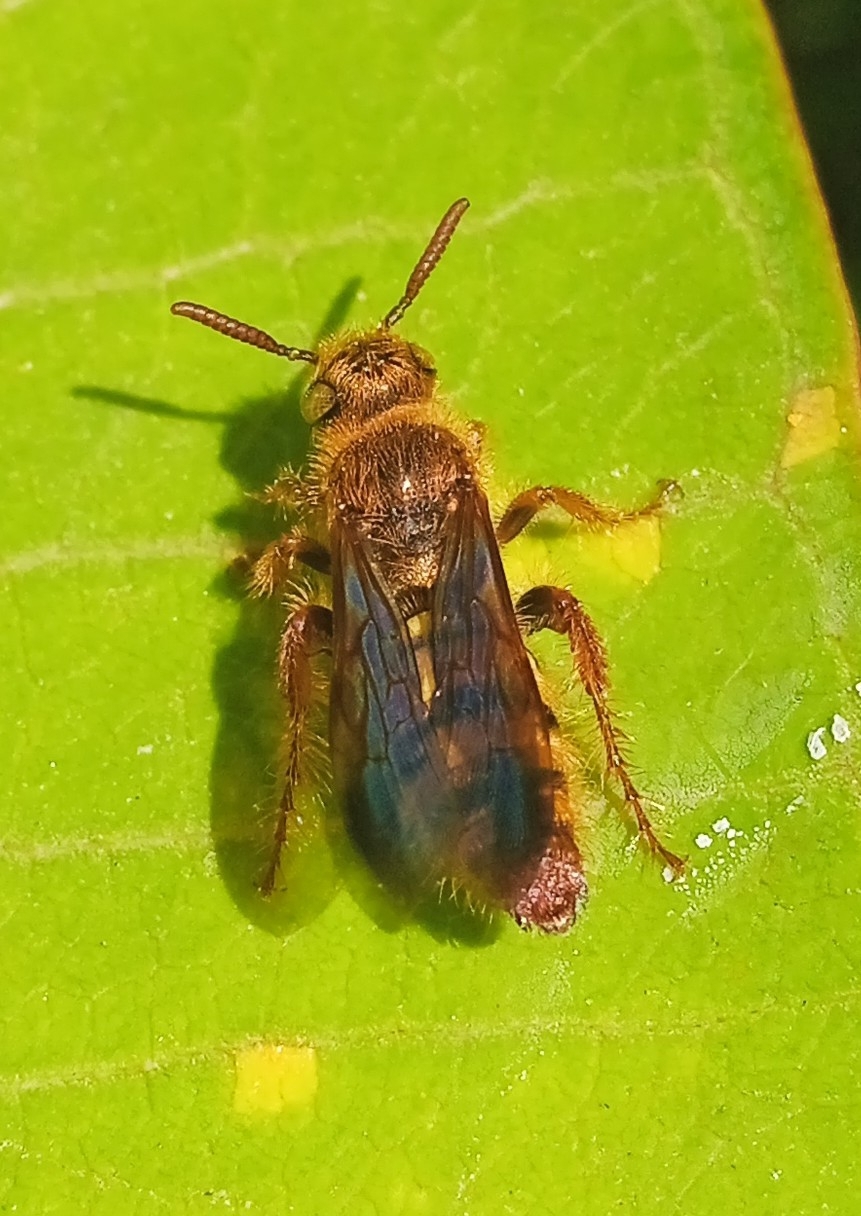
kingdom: Animalia
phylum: Arthropoda
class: Insecta
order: Hymenoptera
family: Scoliidae
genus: Phalerimeris
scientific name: Phalerimeris
